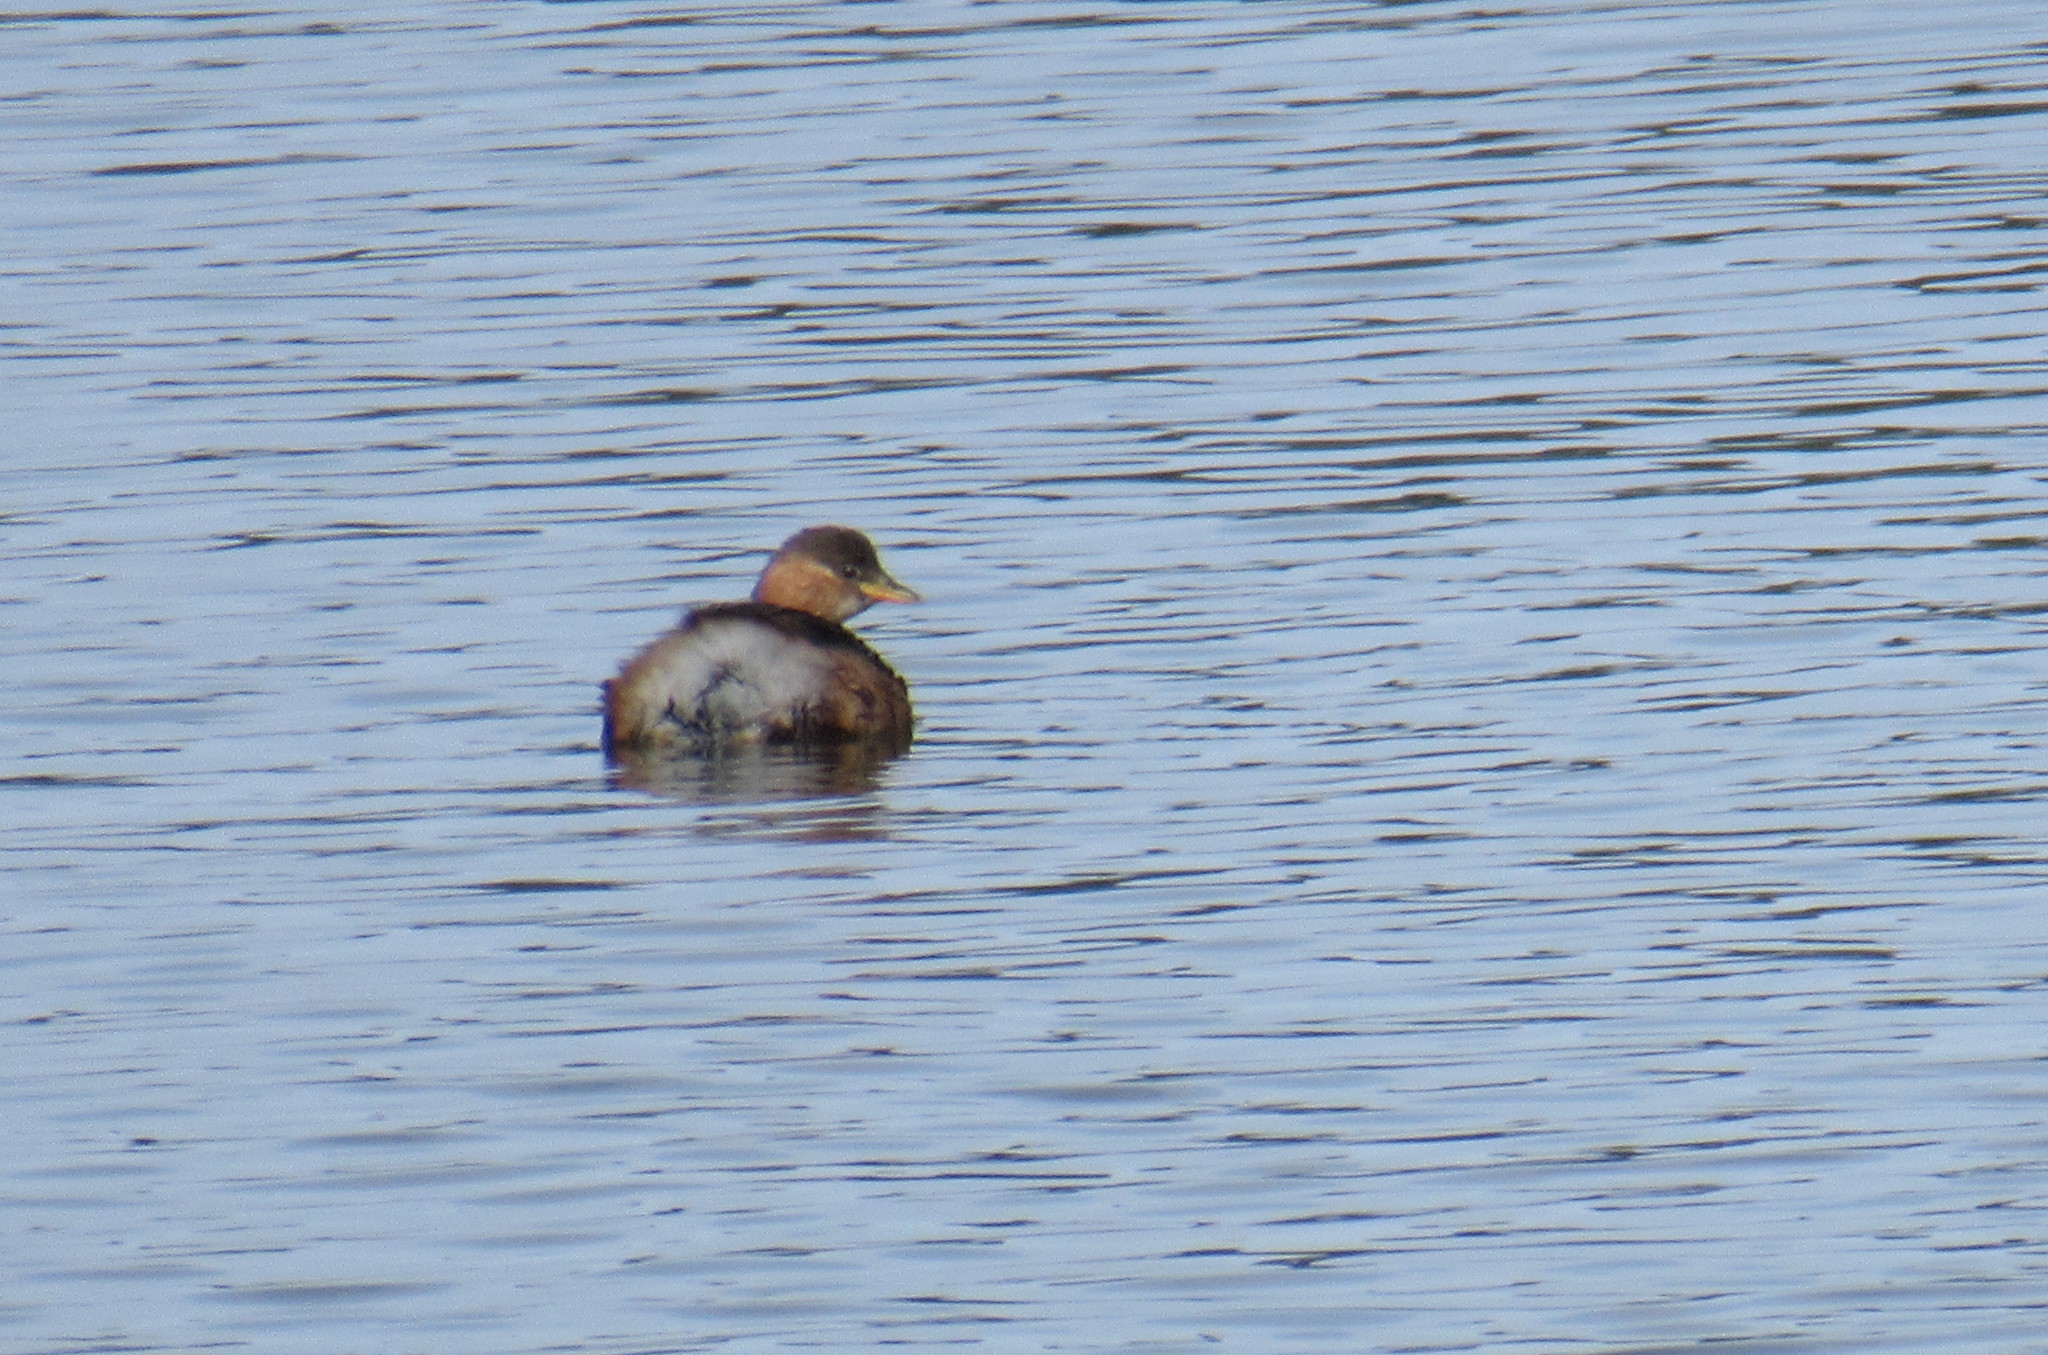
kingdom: Animalia
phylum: Chordata
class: Aves
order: Podicipediformes
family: Podicipedidae
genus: Tachybaptus
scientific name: Tachybaptus ruficollis
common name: Little grebe
